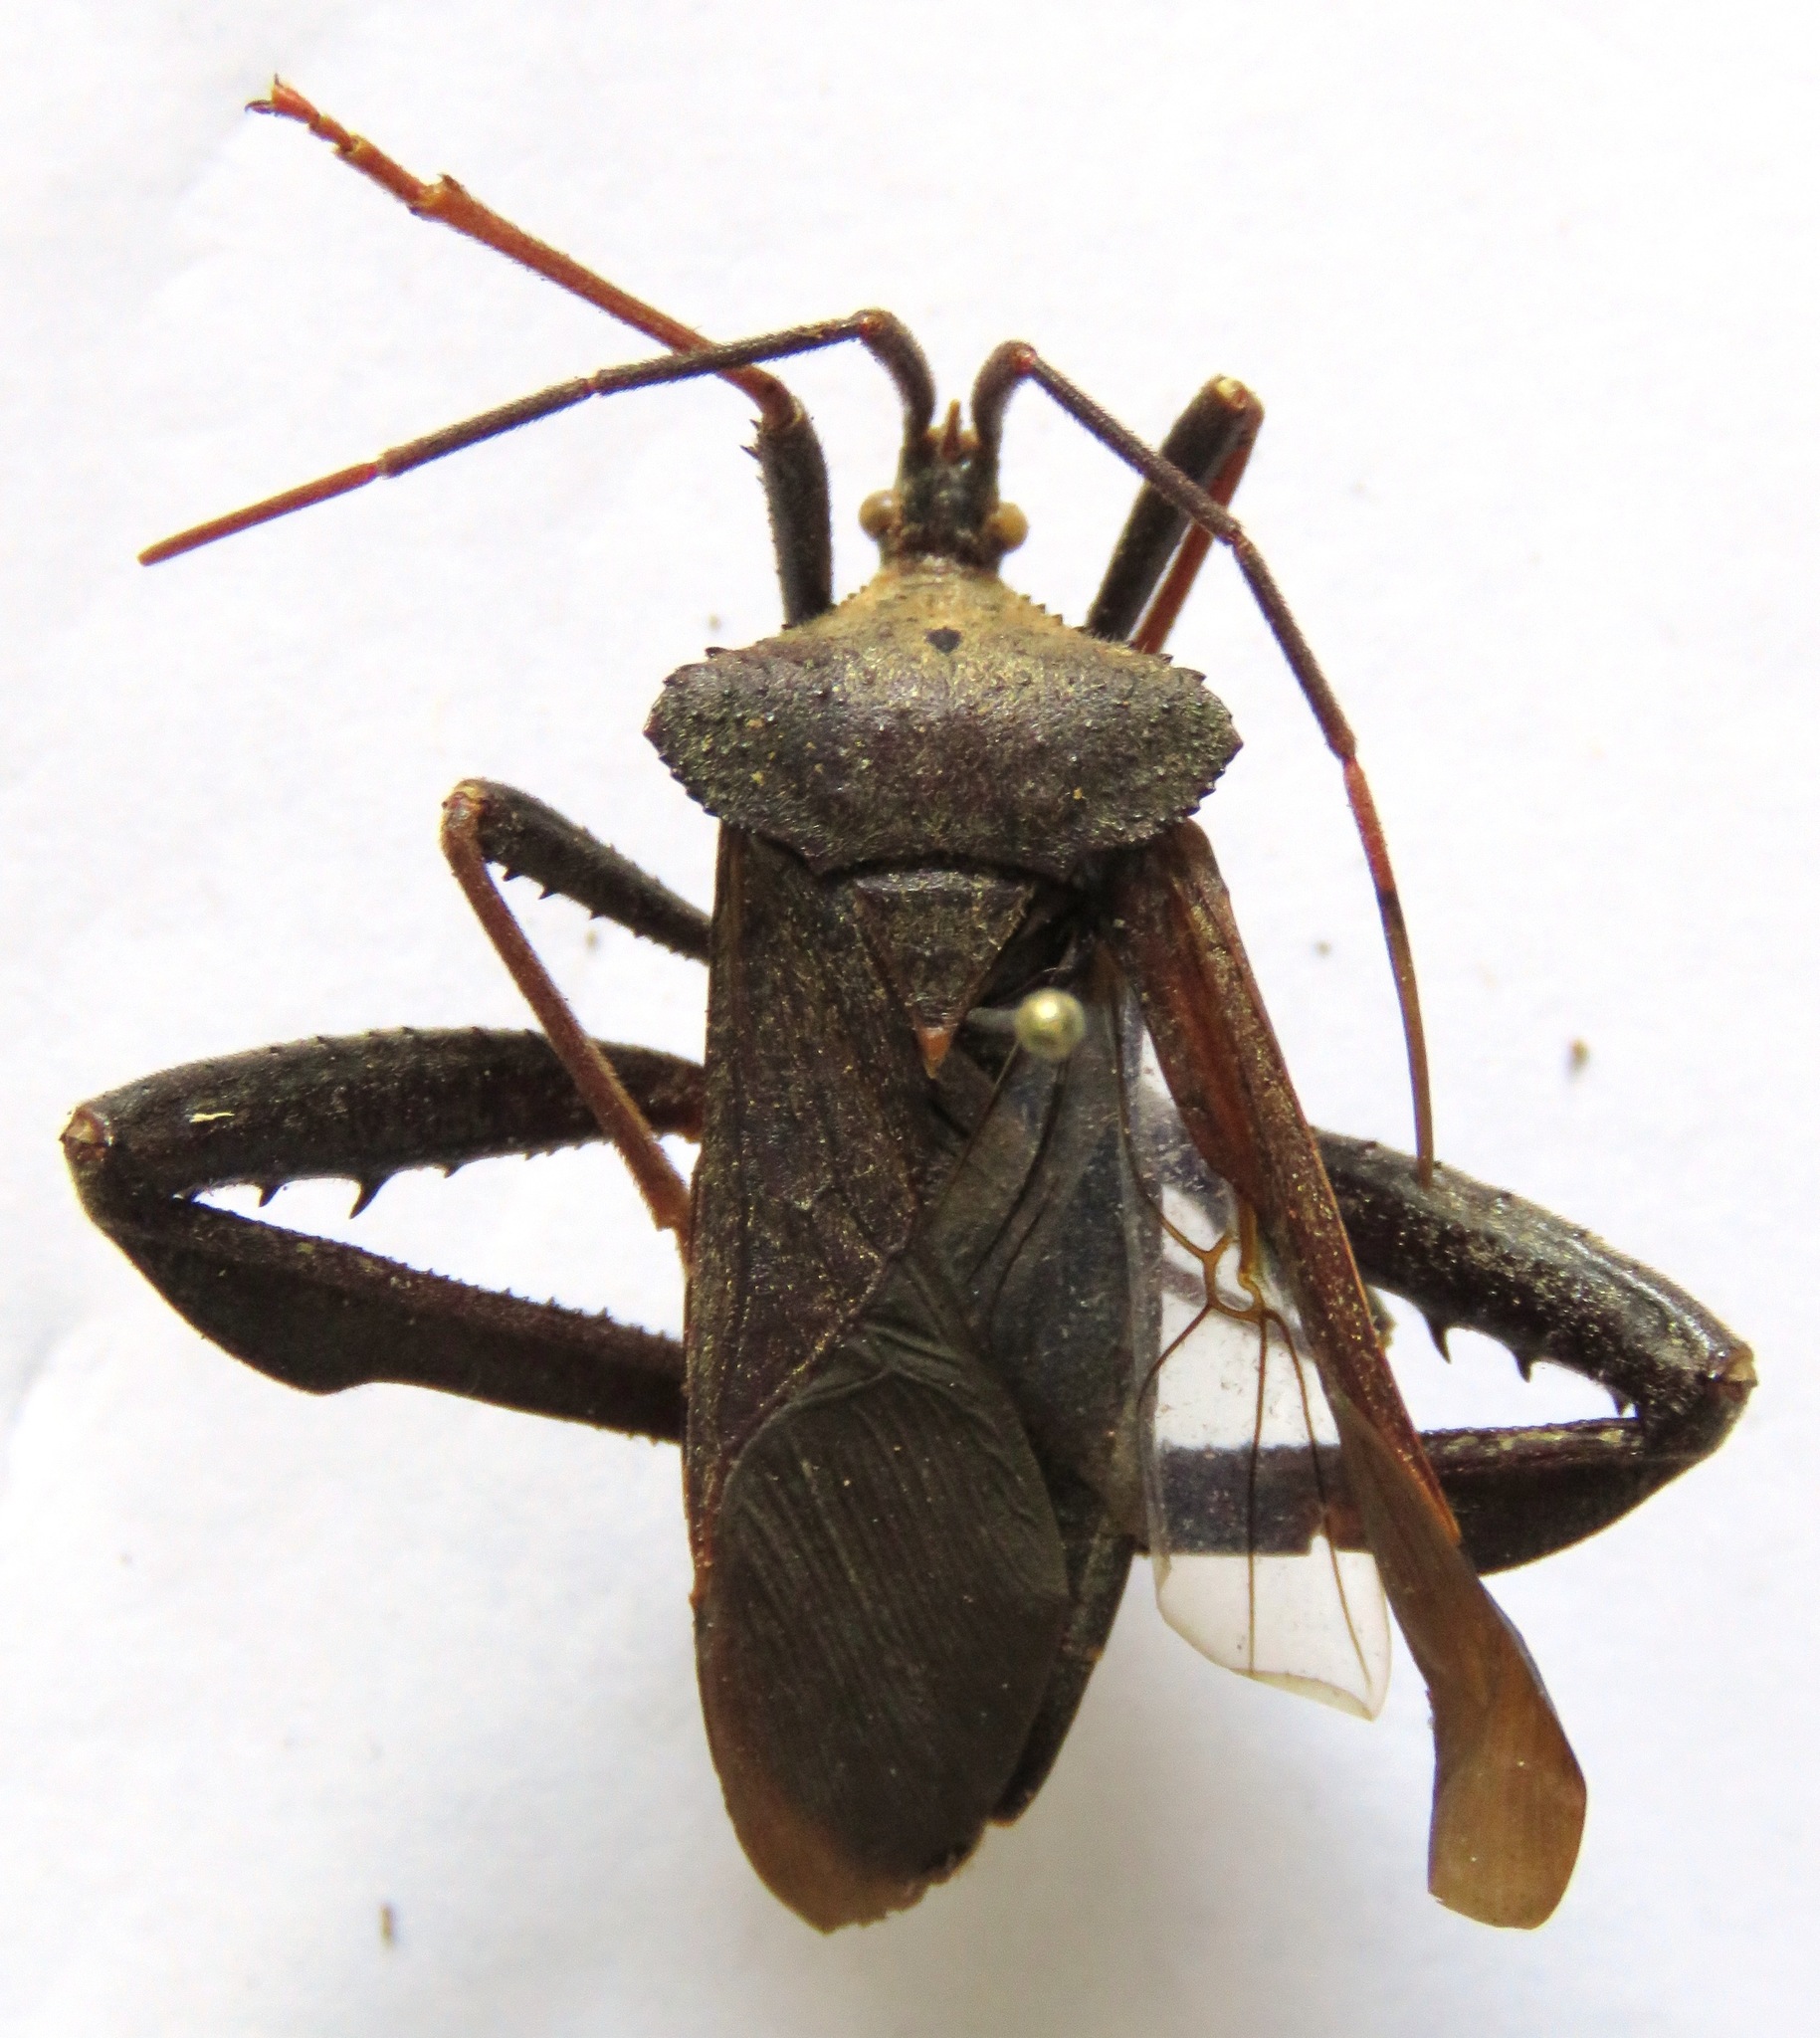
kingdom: Animalia
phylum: Arthropoda
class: Insecta
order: Hemiptera
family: Coreidae
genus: Acanthocephala
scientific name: Acanthocephala alata
